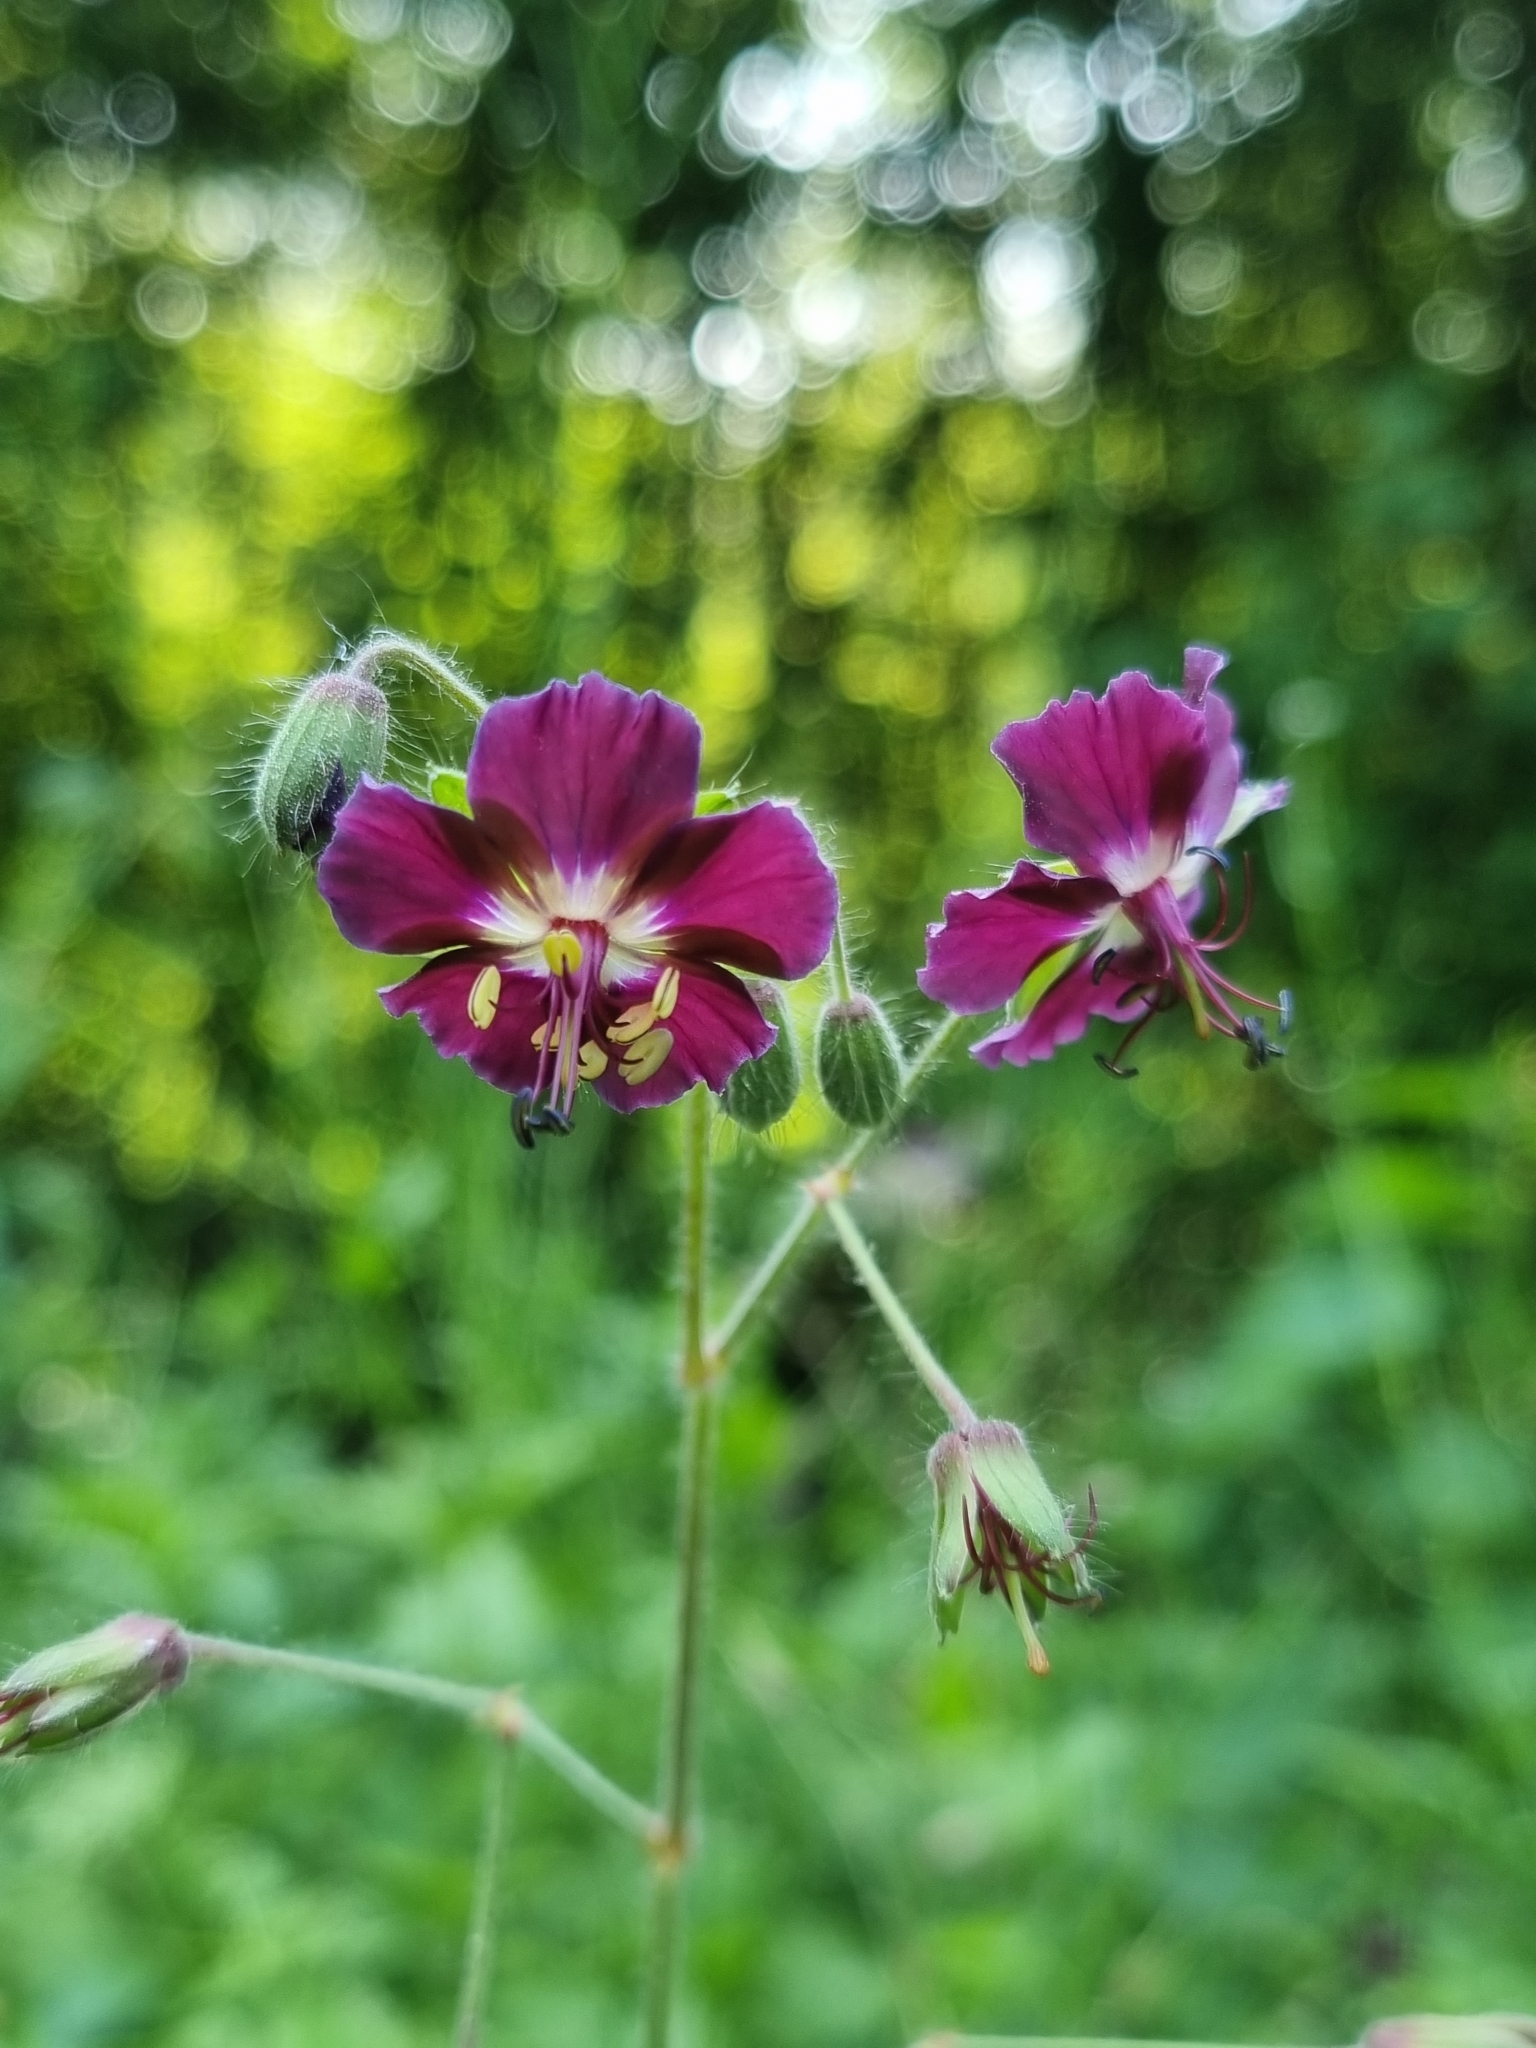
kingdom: Plantae
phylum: Tracheophyta
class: Magnoliopsida
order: Geraniales
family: Geraniaceae
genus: Geranium
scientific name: Geranium phaeum
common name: Dusky crane's-bill
